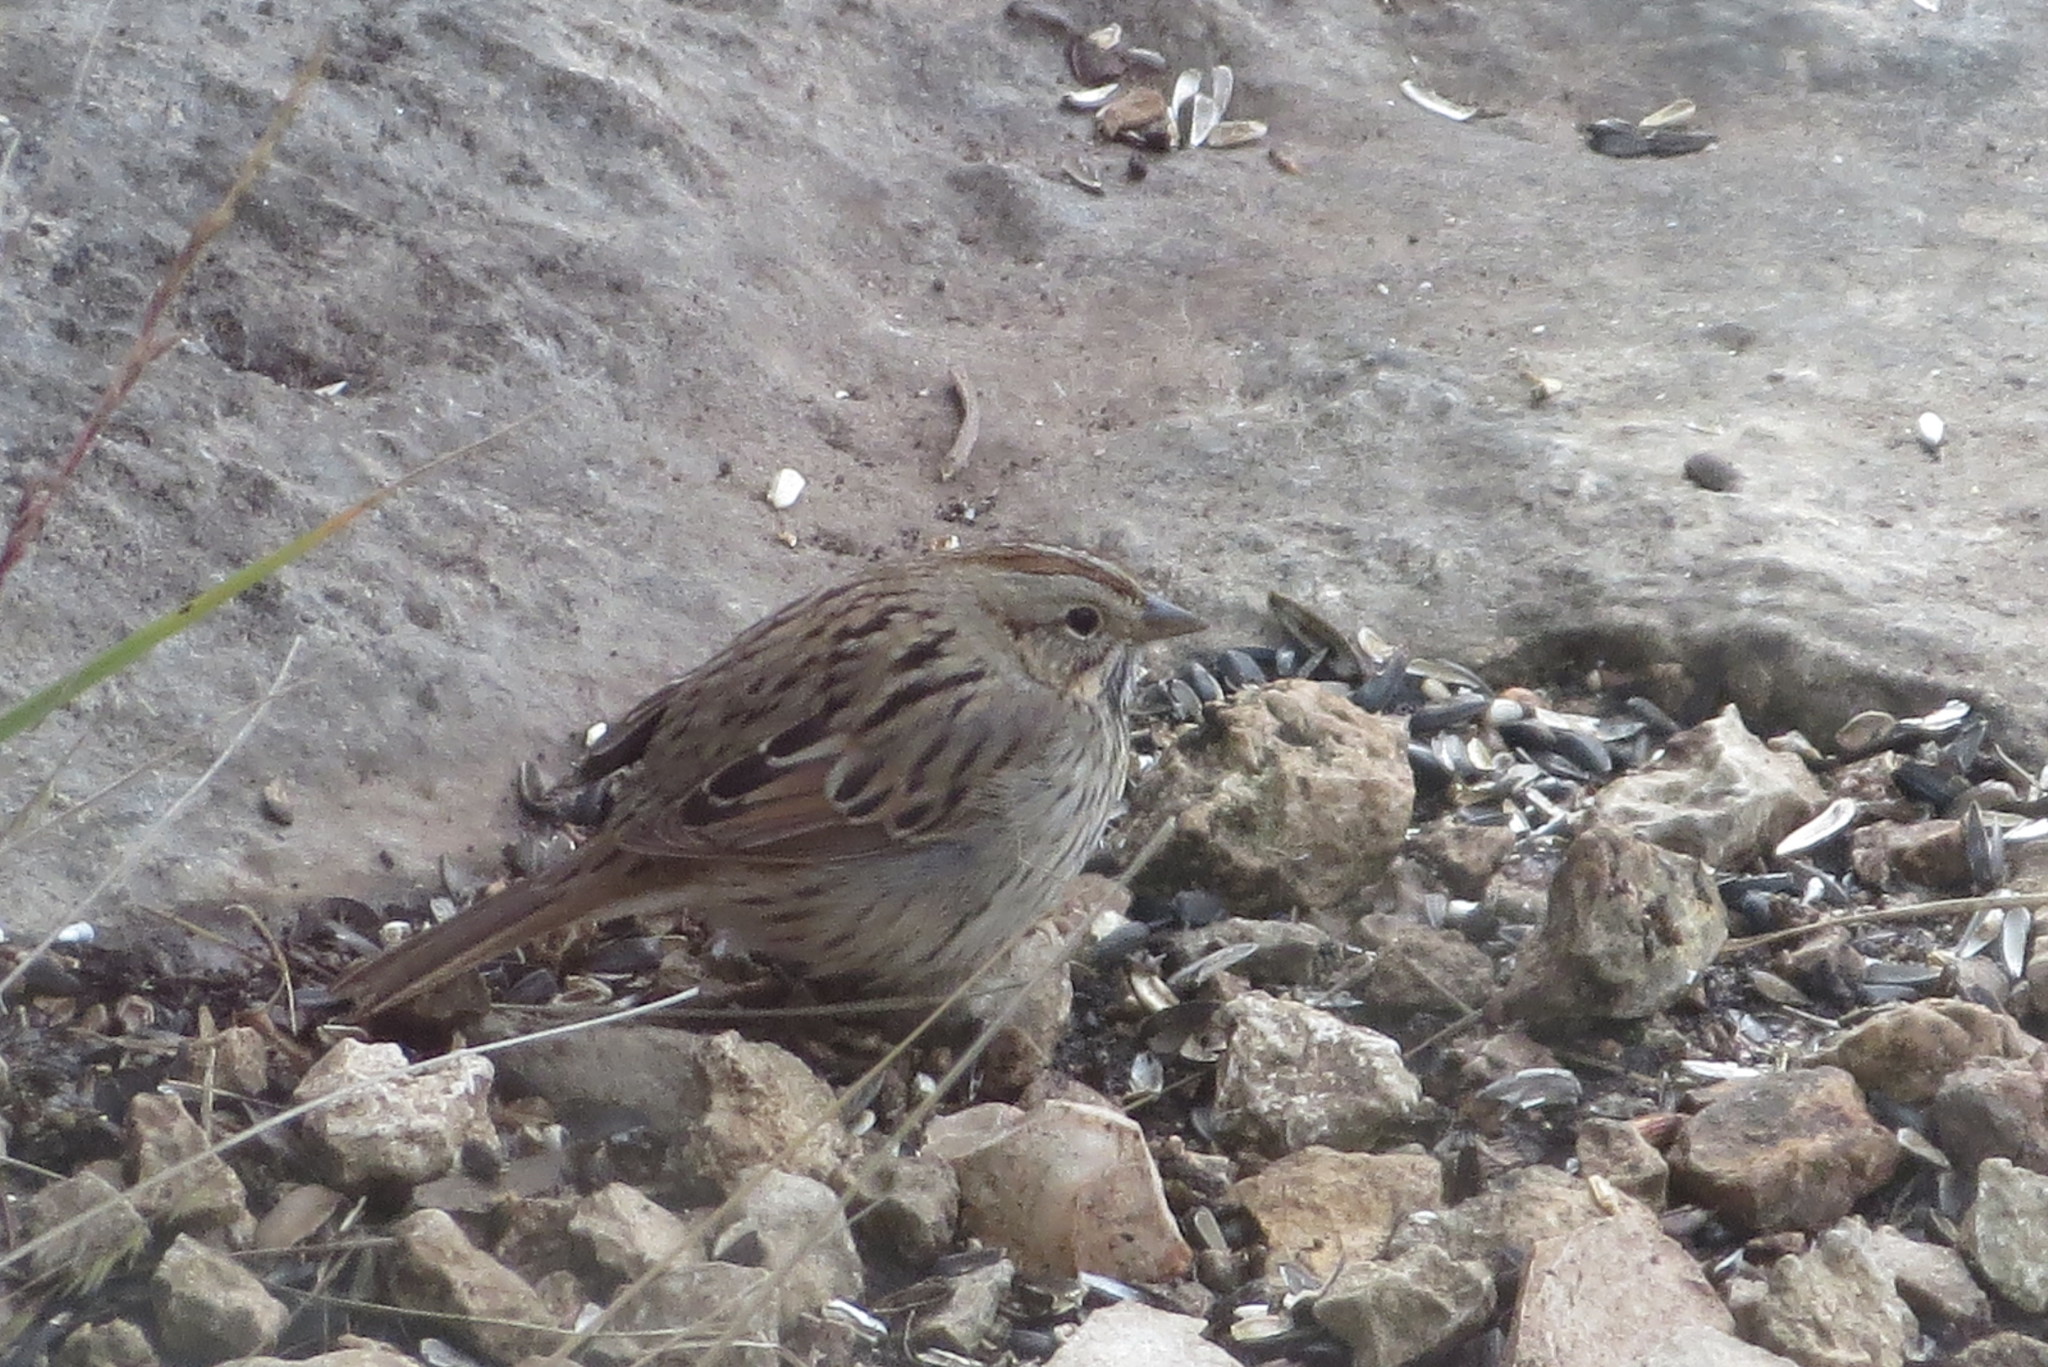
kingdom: Animalia
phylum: Chordata
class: Aves
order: Passeriformes
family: Passerellidae
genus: Melospiza
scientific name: Melospiza lincolnii
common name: Lincoln's sparrow
